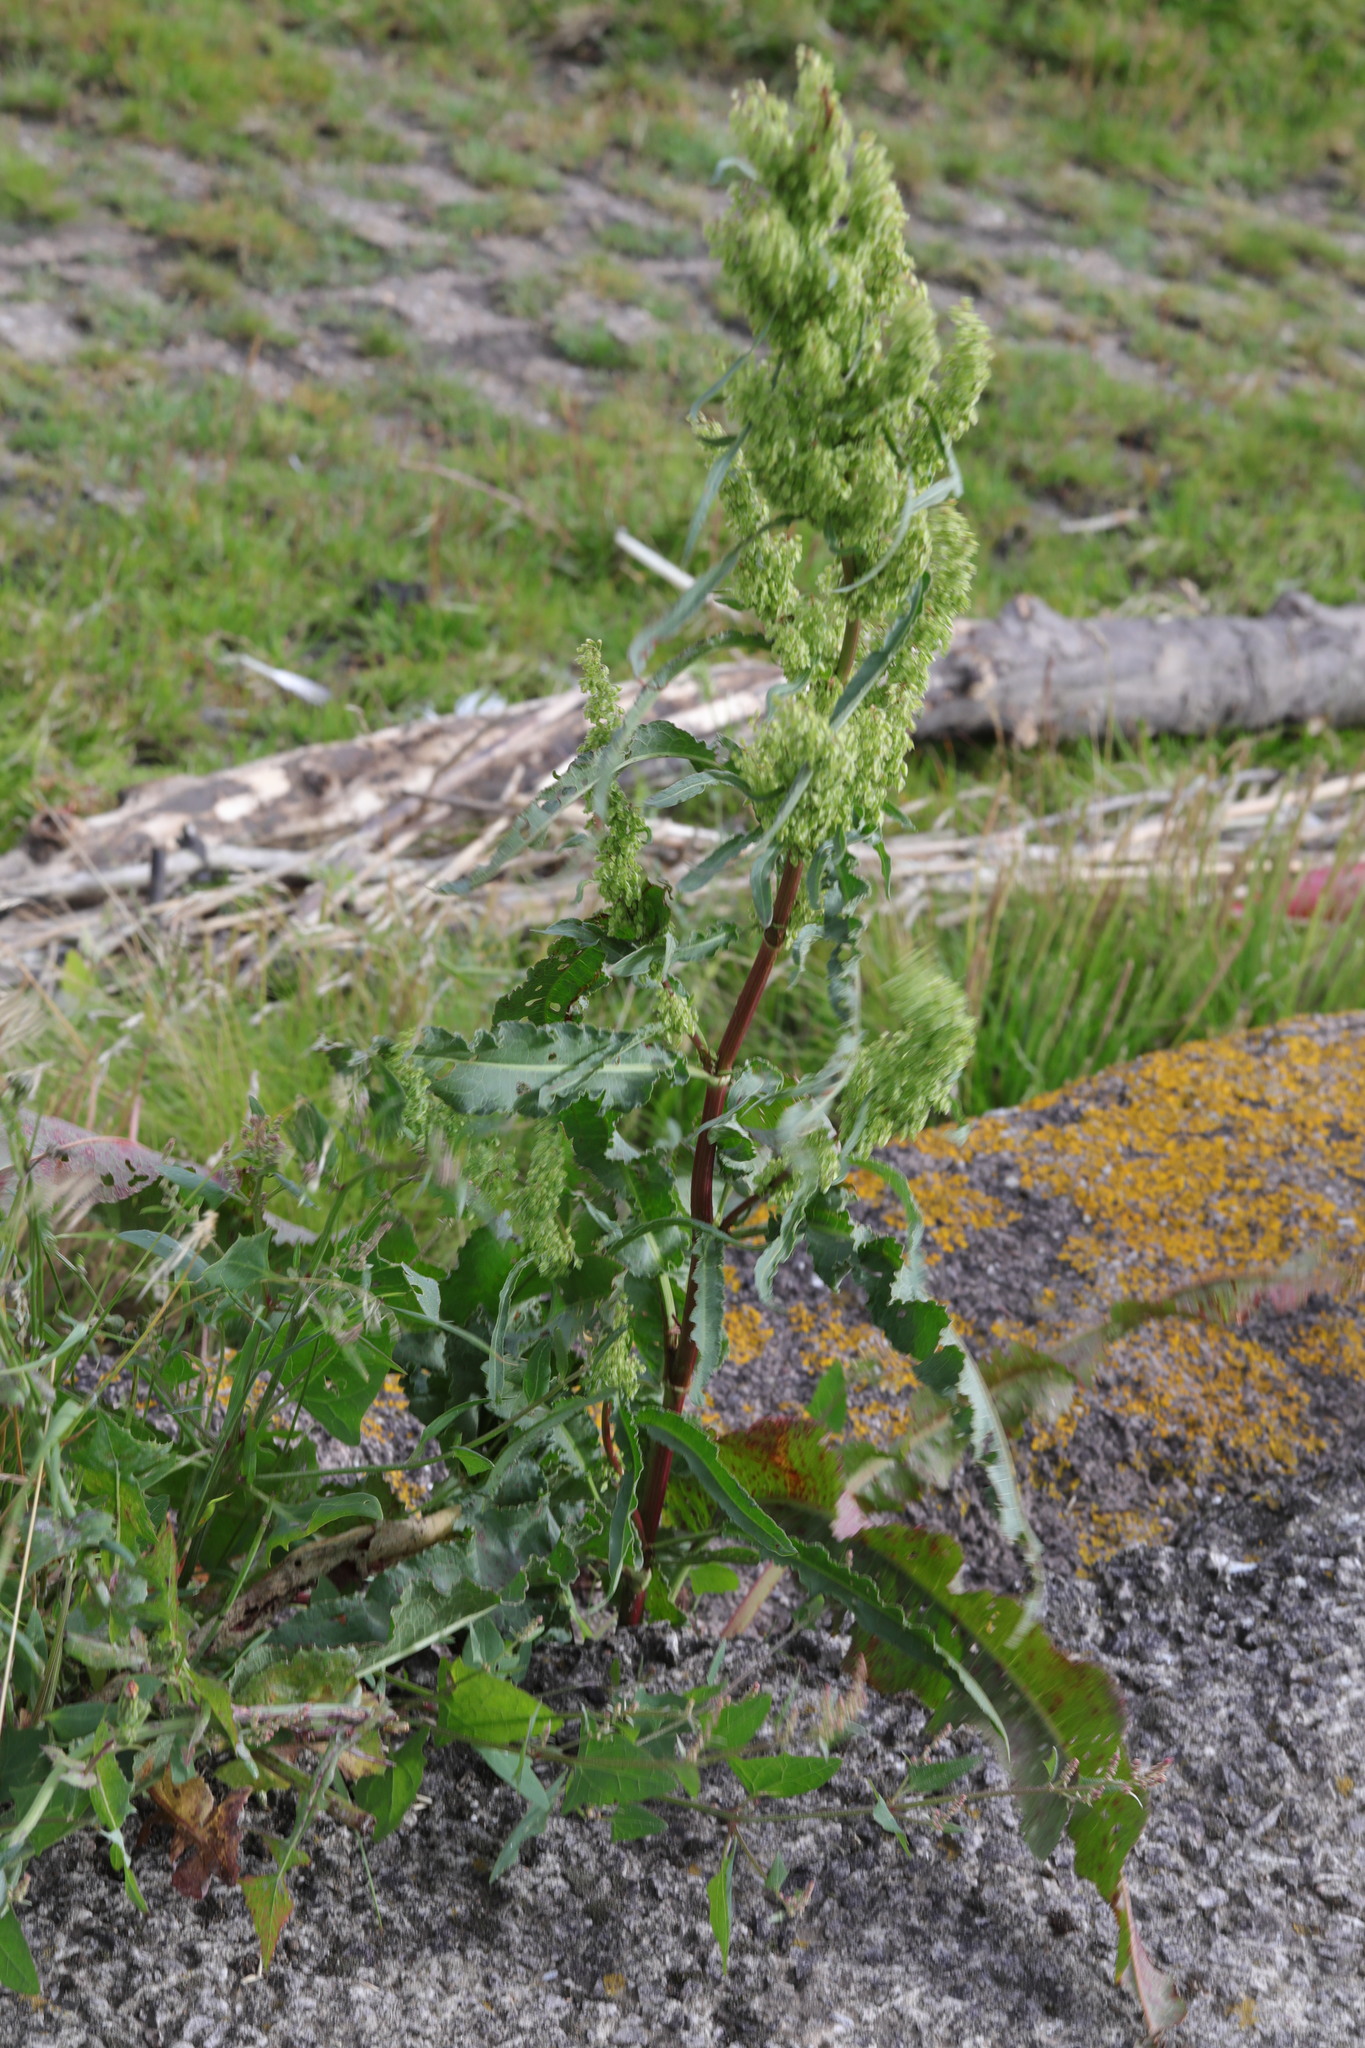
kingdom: Plantae
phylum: Tracheophyta
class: Magnoliopsida
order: Caryophyllales
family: Polygonaceae
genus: Rumex
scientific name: Rumex crispus
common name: Curled dock
